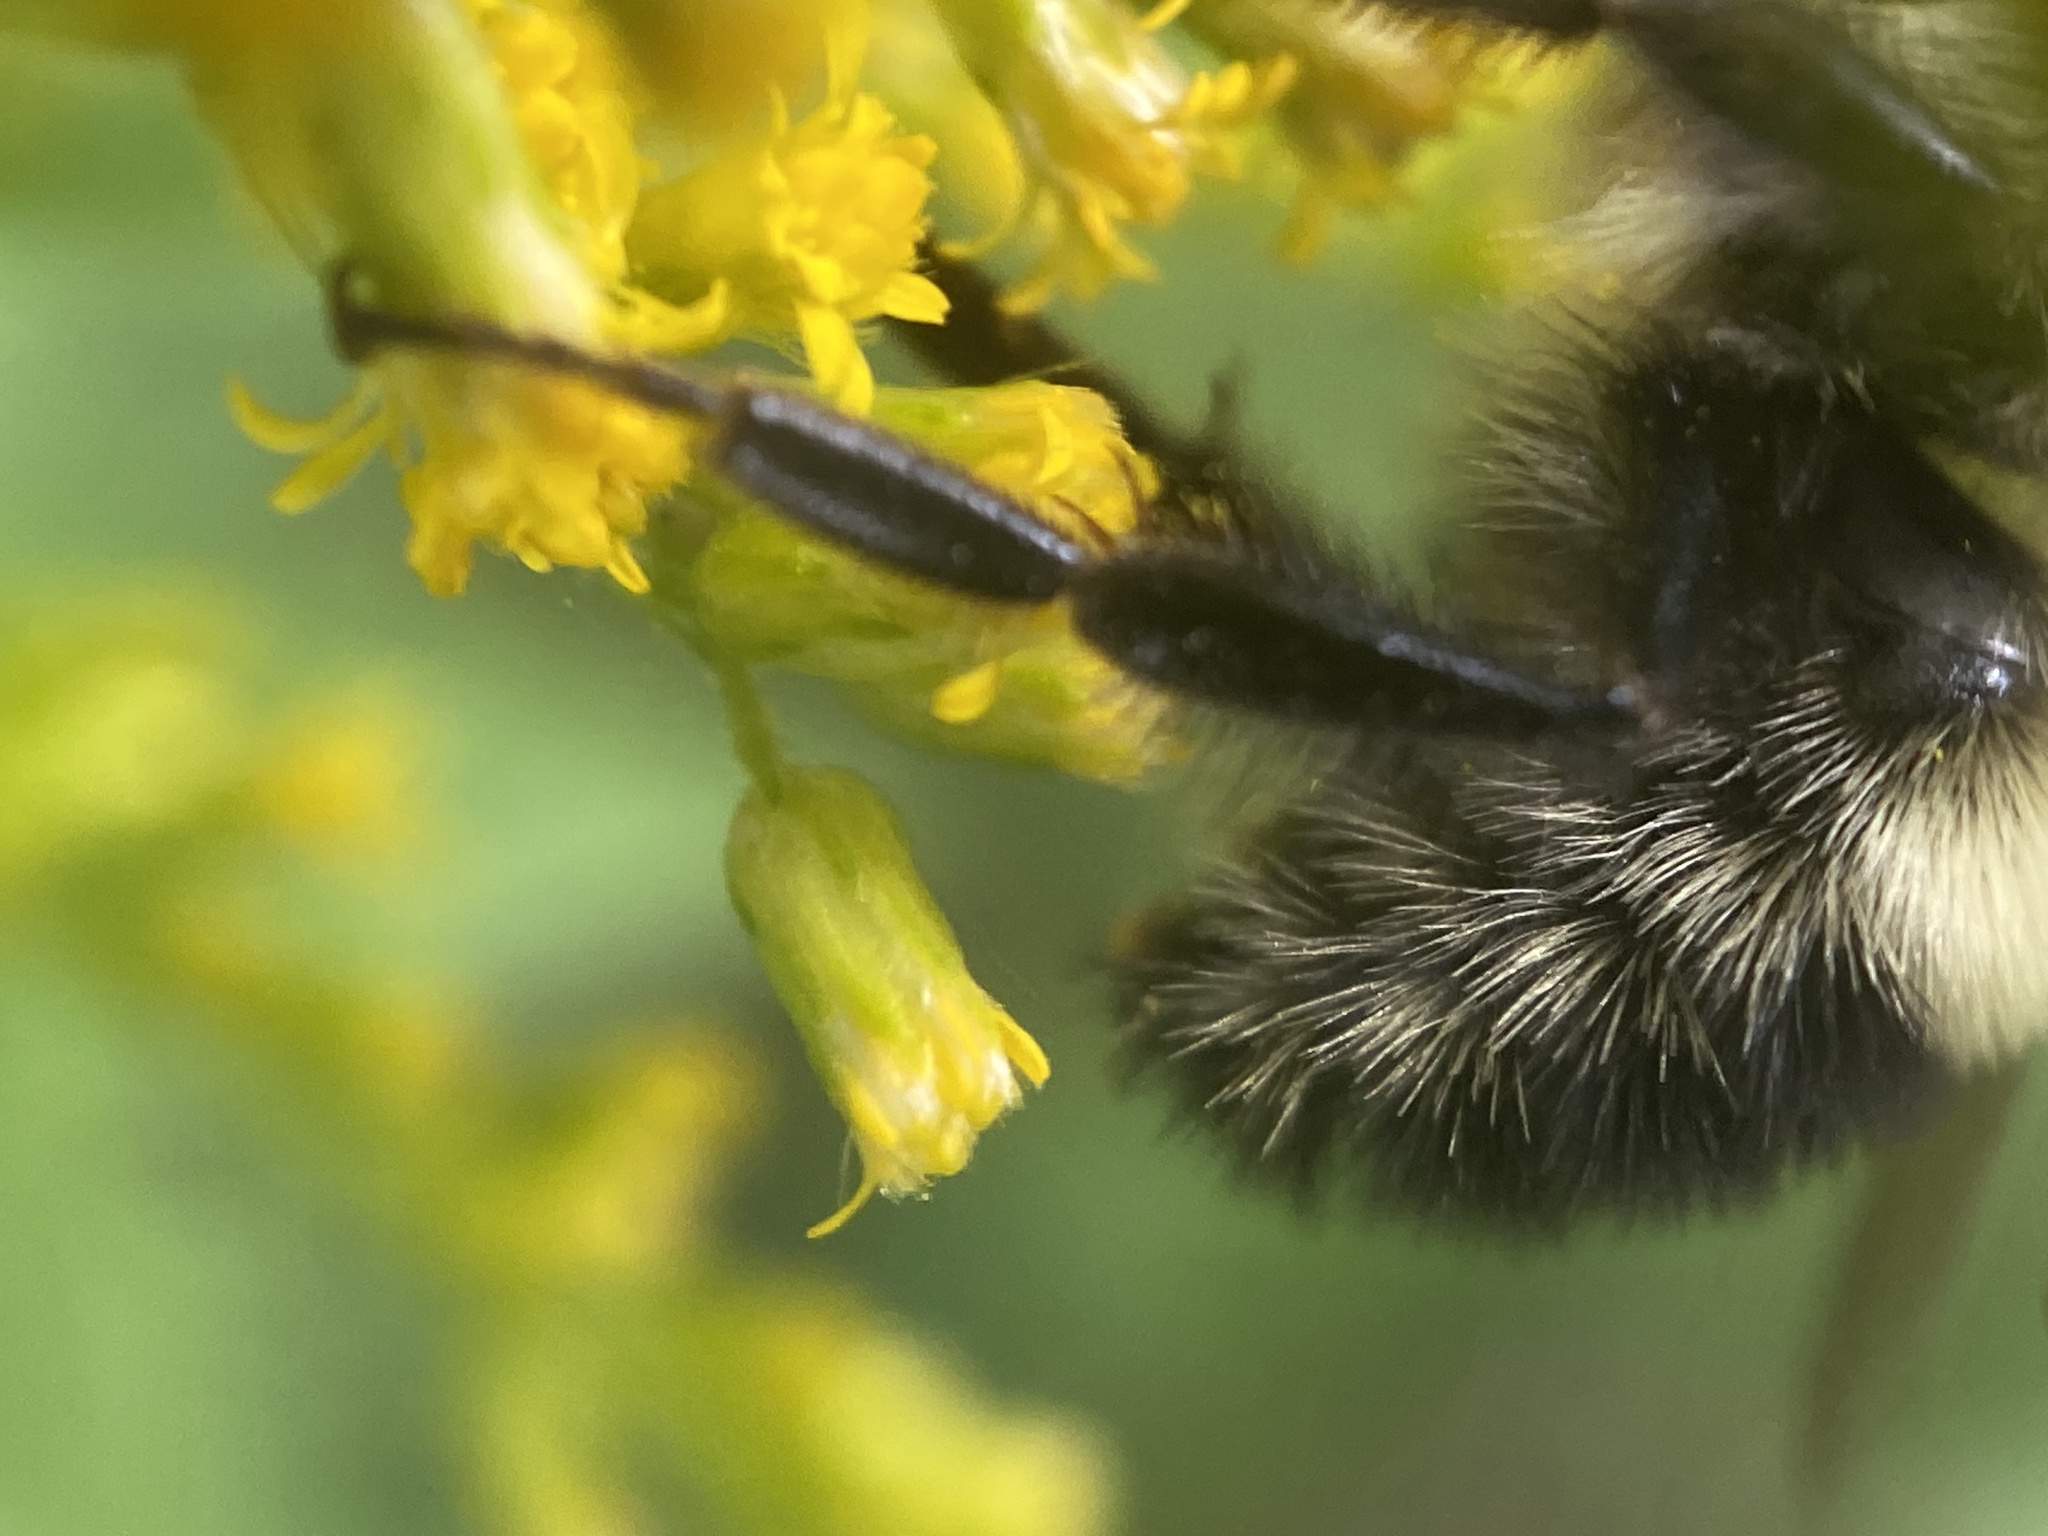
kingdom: Animalia
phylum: Arthropoda
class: Insecta
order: Hymenoptera
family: Apidae
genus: Pyrobombus
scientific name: Pyrobombus
